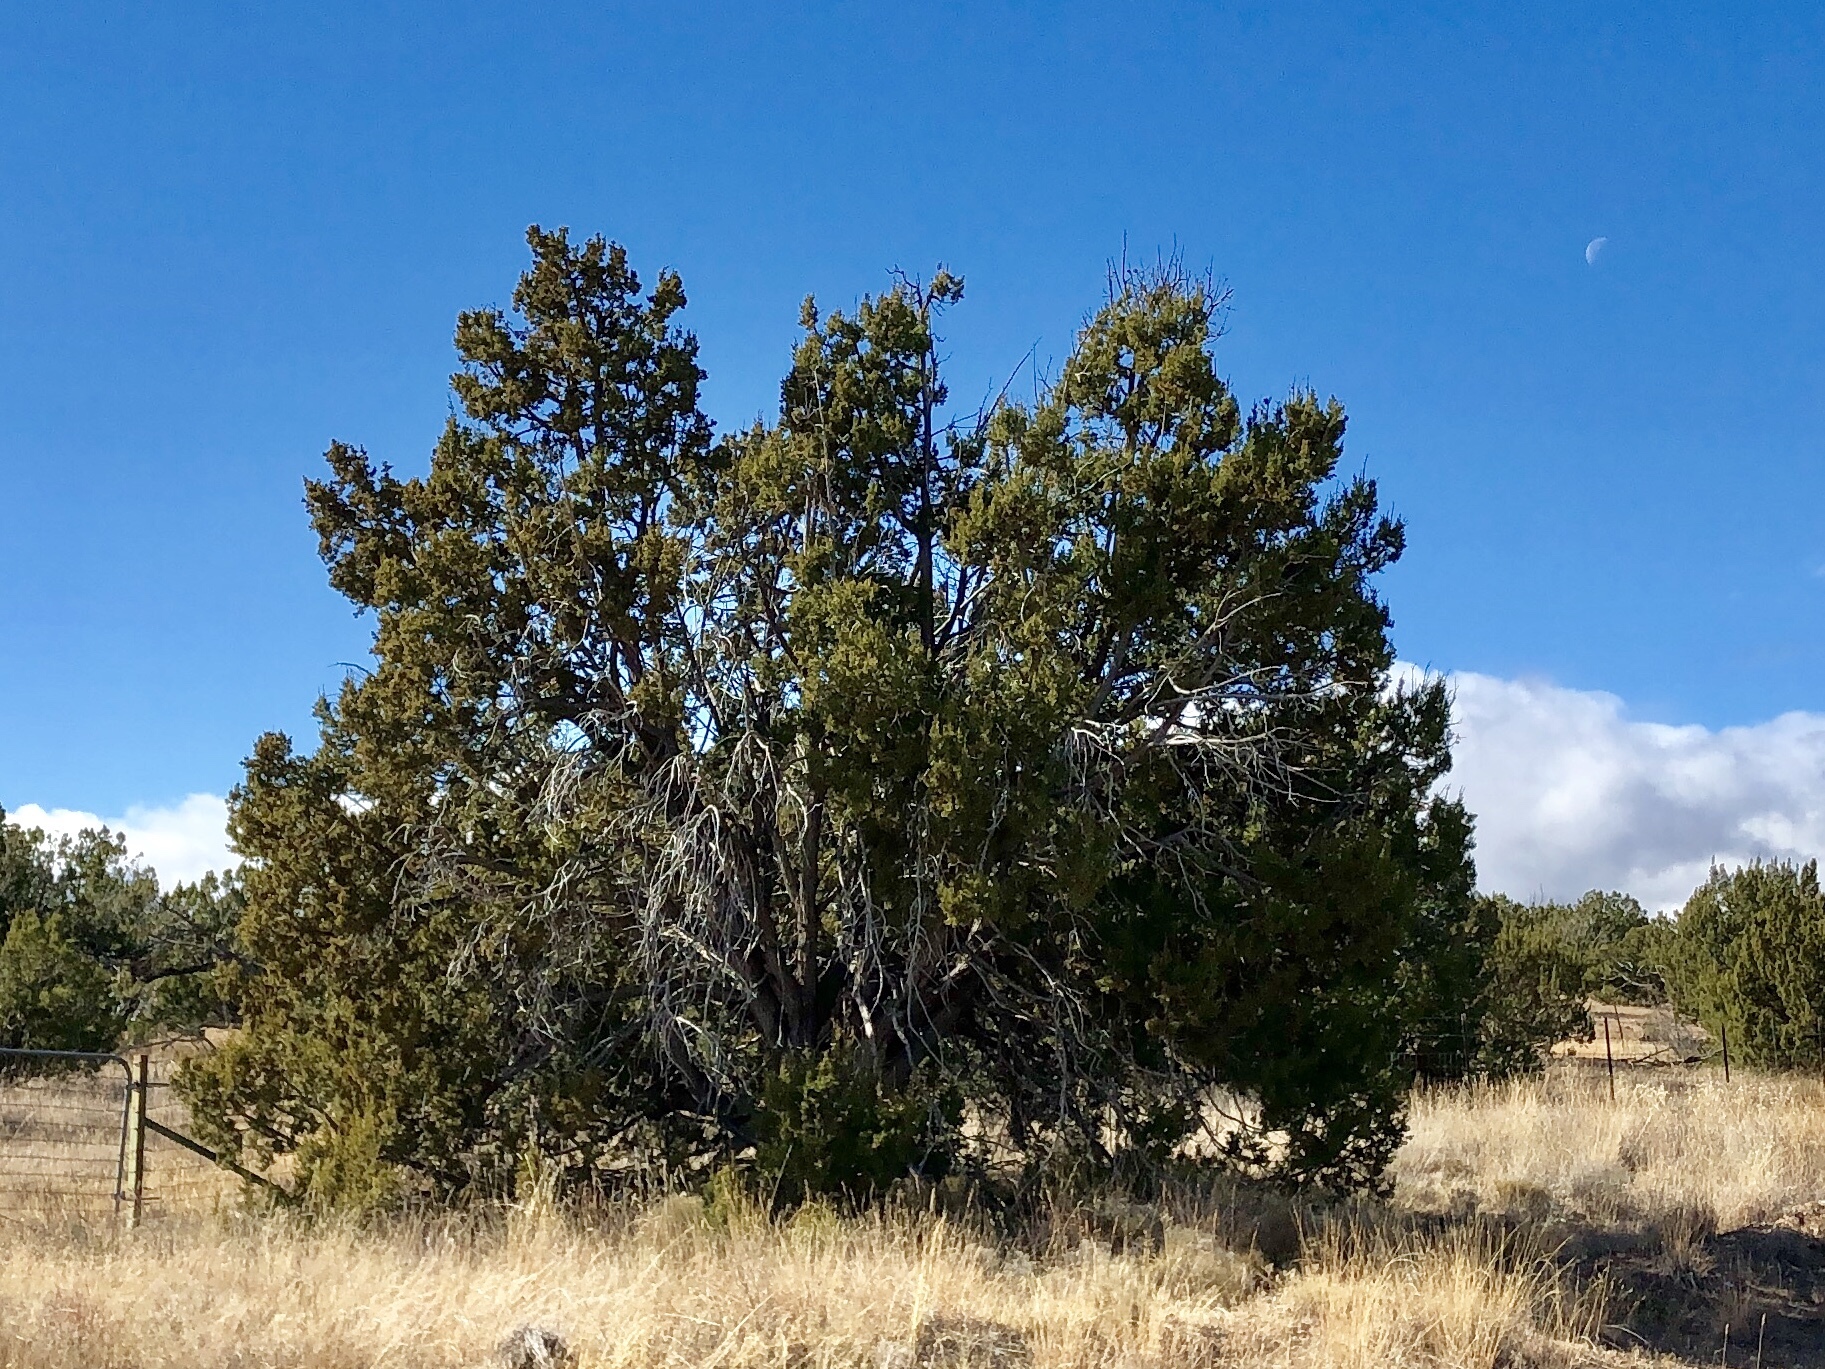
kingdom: Plantae
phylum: Tracheophyta
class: Pinopsida
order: Pinales
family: Cupressaceae
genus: Juniperus
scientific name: Juniperus monosperma
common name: One-seed juniper
